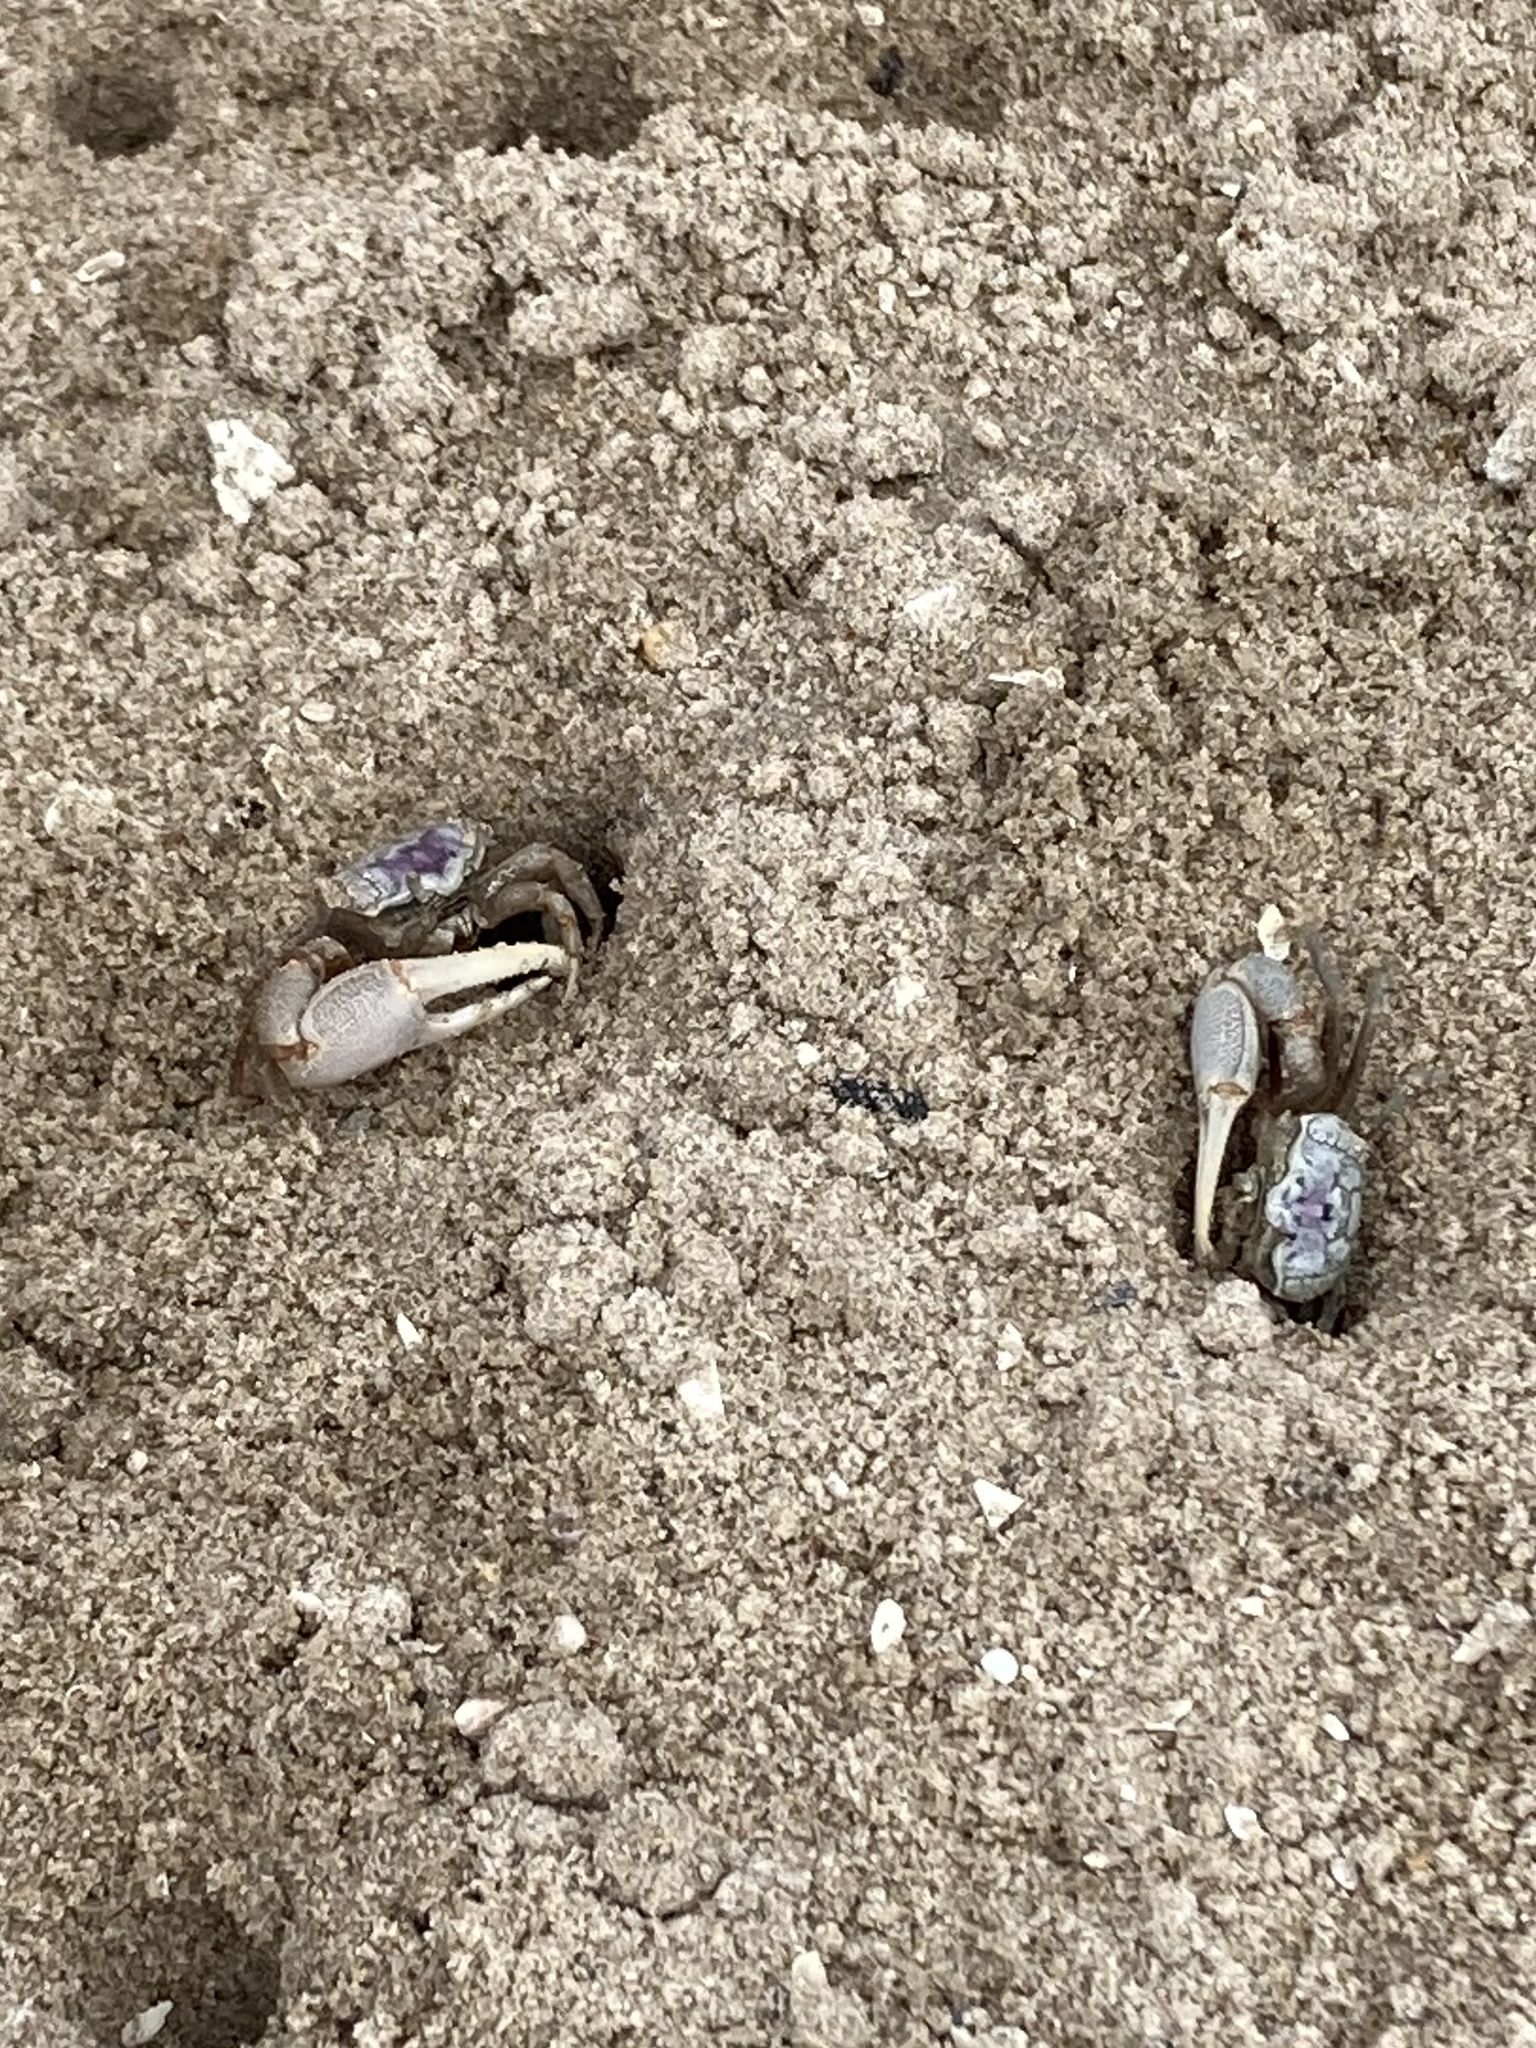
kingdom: Animalia
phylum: Arthropoda
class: Malacostraca
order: Decapoda
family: Ocypodidae
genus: Leptuca
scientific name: Leptuca pugilator
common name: Atlantic sand fiddler crab
